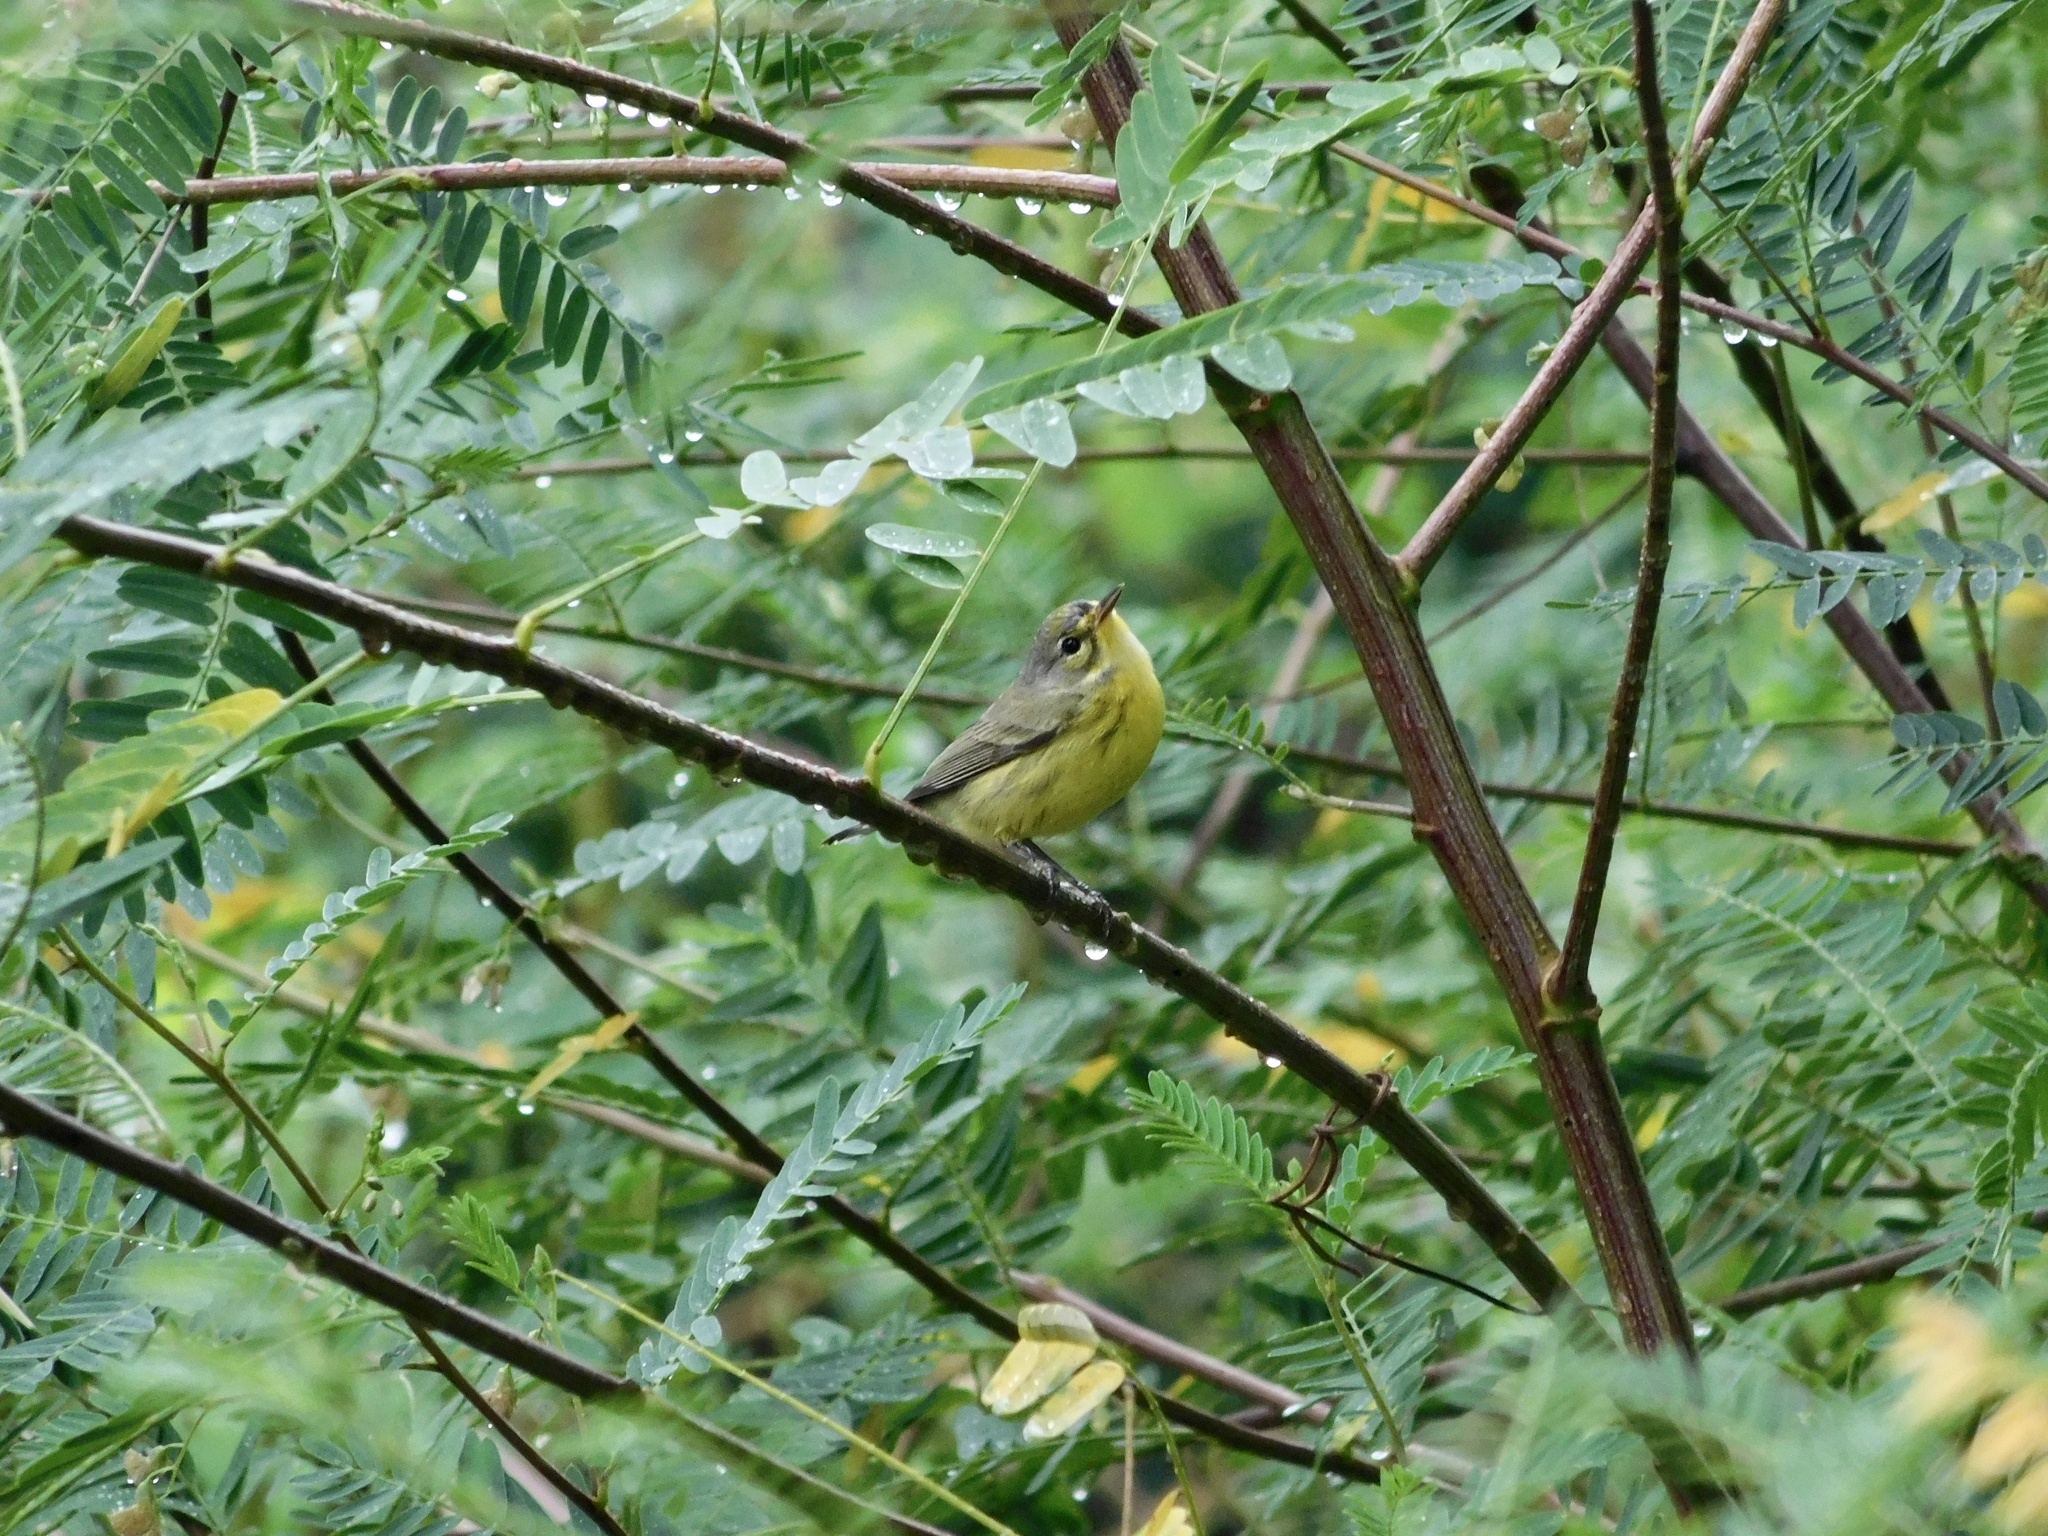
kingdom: Animalia
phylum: Chordata
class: Aves
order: Passeriformes
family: Parulidae
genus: Setophaga
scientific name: Setophaga discolor
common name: Prairie warbler
